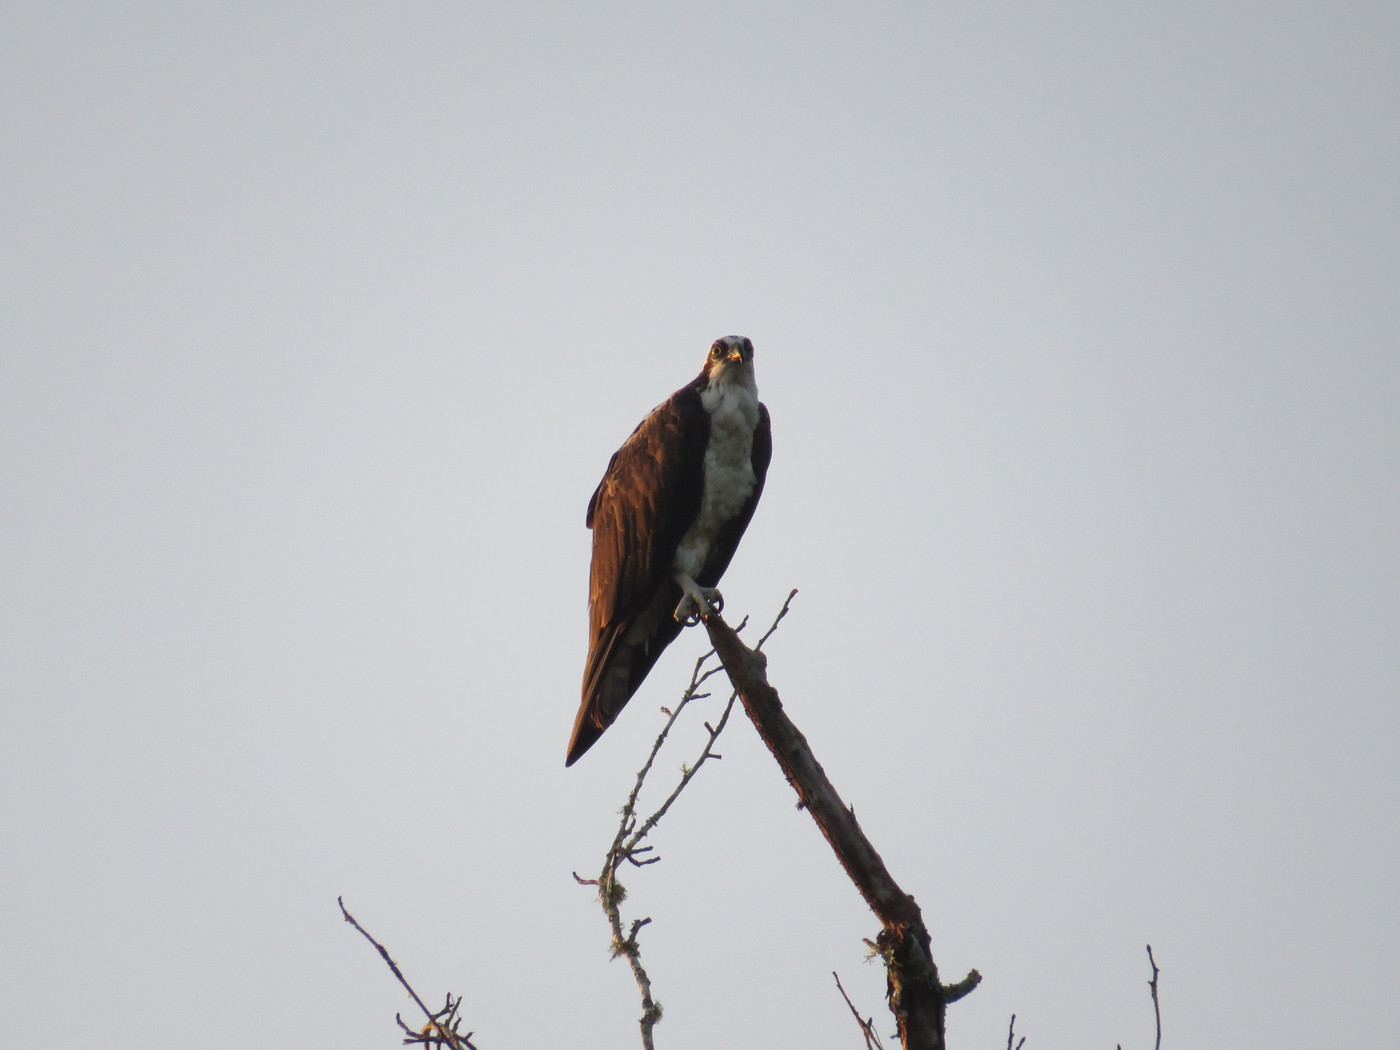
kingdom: Animalia
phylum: Chordata
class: Aves
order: Accipitriformes
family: Pandionidae
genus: Pandion
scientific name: Pandion haliaetus
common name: Osprey
